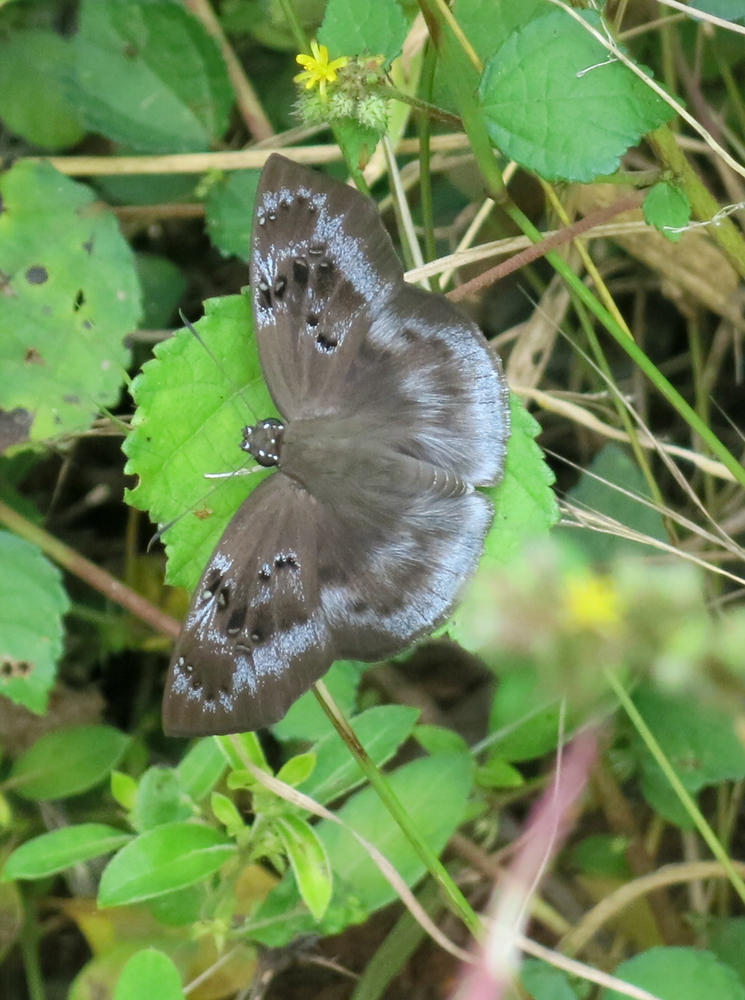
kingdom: Animalia
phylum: Arthropoda
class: Insecta
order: Lepidoptera
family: Hesperiidae
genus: Tagiades
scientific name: Tagiades flesus
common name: Clouded flat
